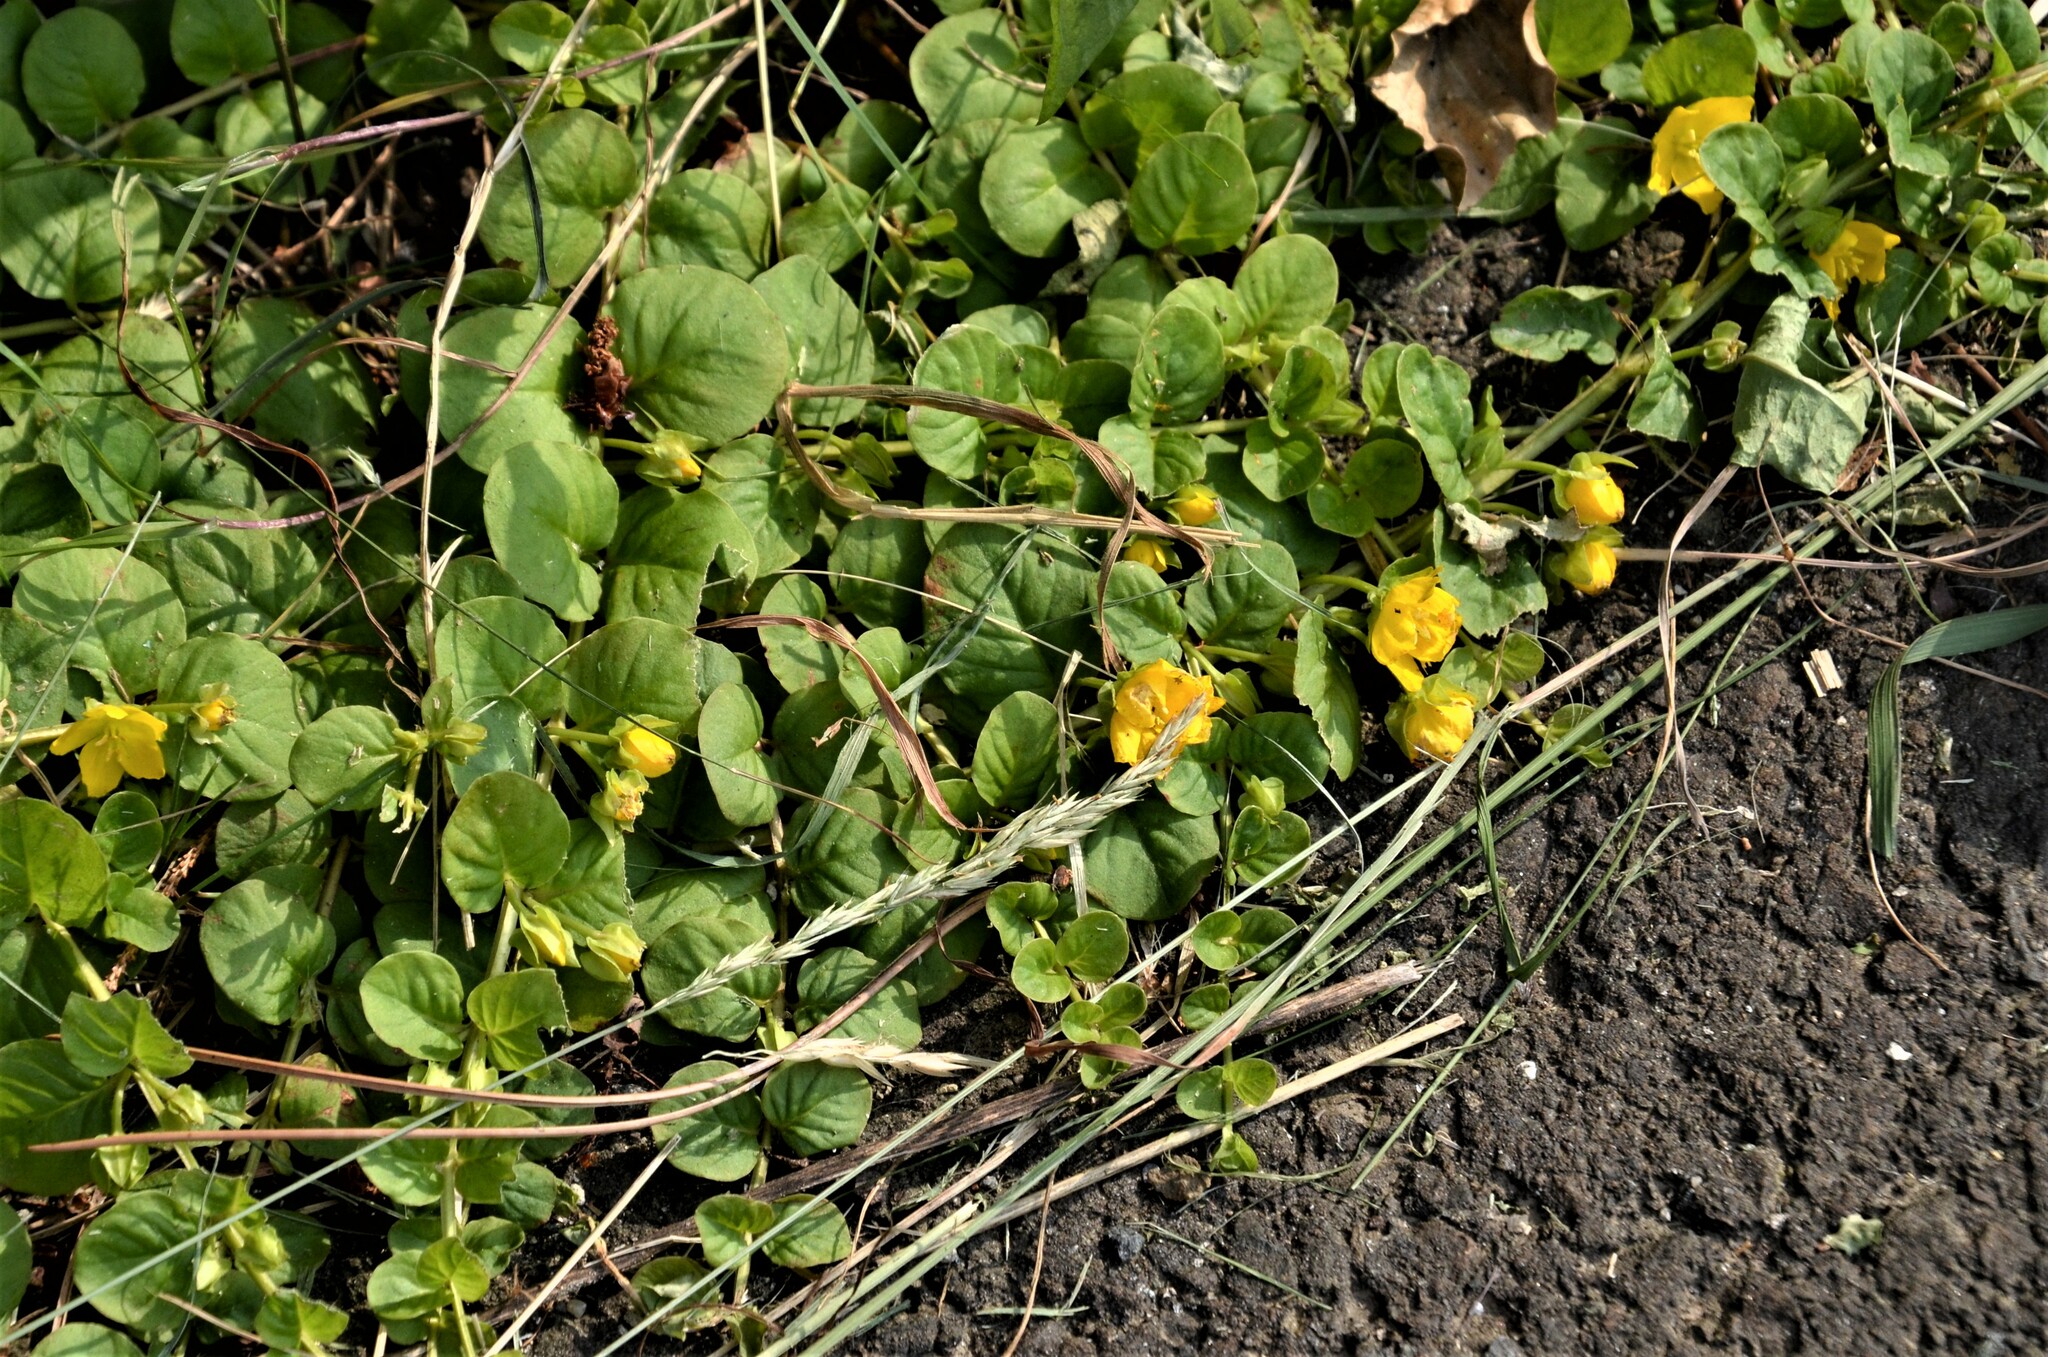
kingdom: Plantae
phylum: Tracheophyta
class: Magnoliopsida
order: Ericales
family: Primulaceae
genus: Lysimachia
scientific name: Lysimachia nummularia
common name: Moneywort
